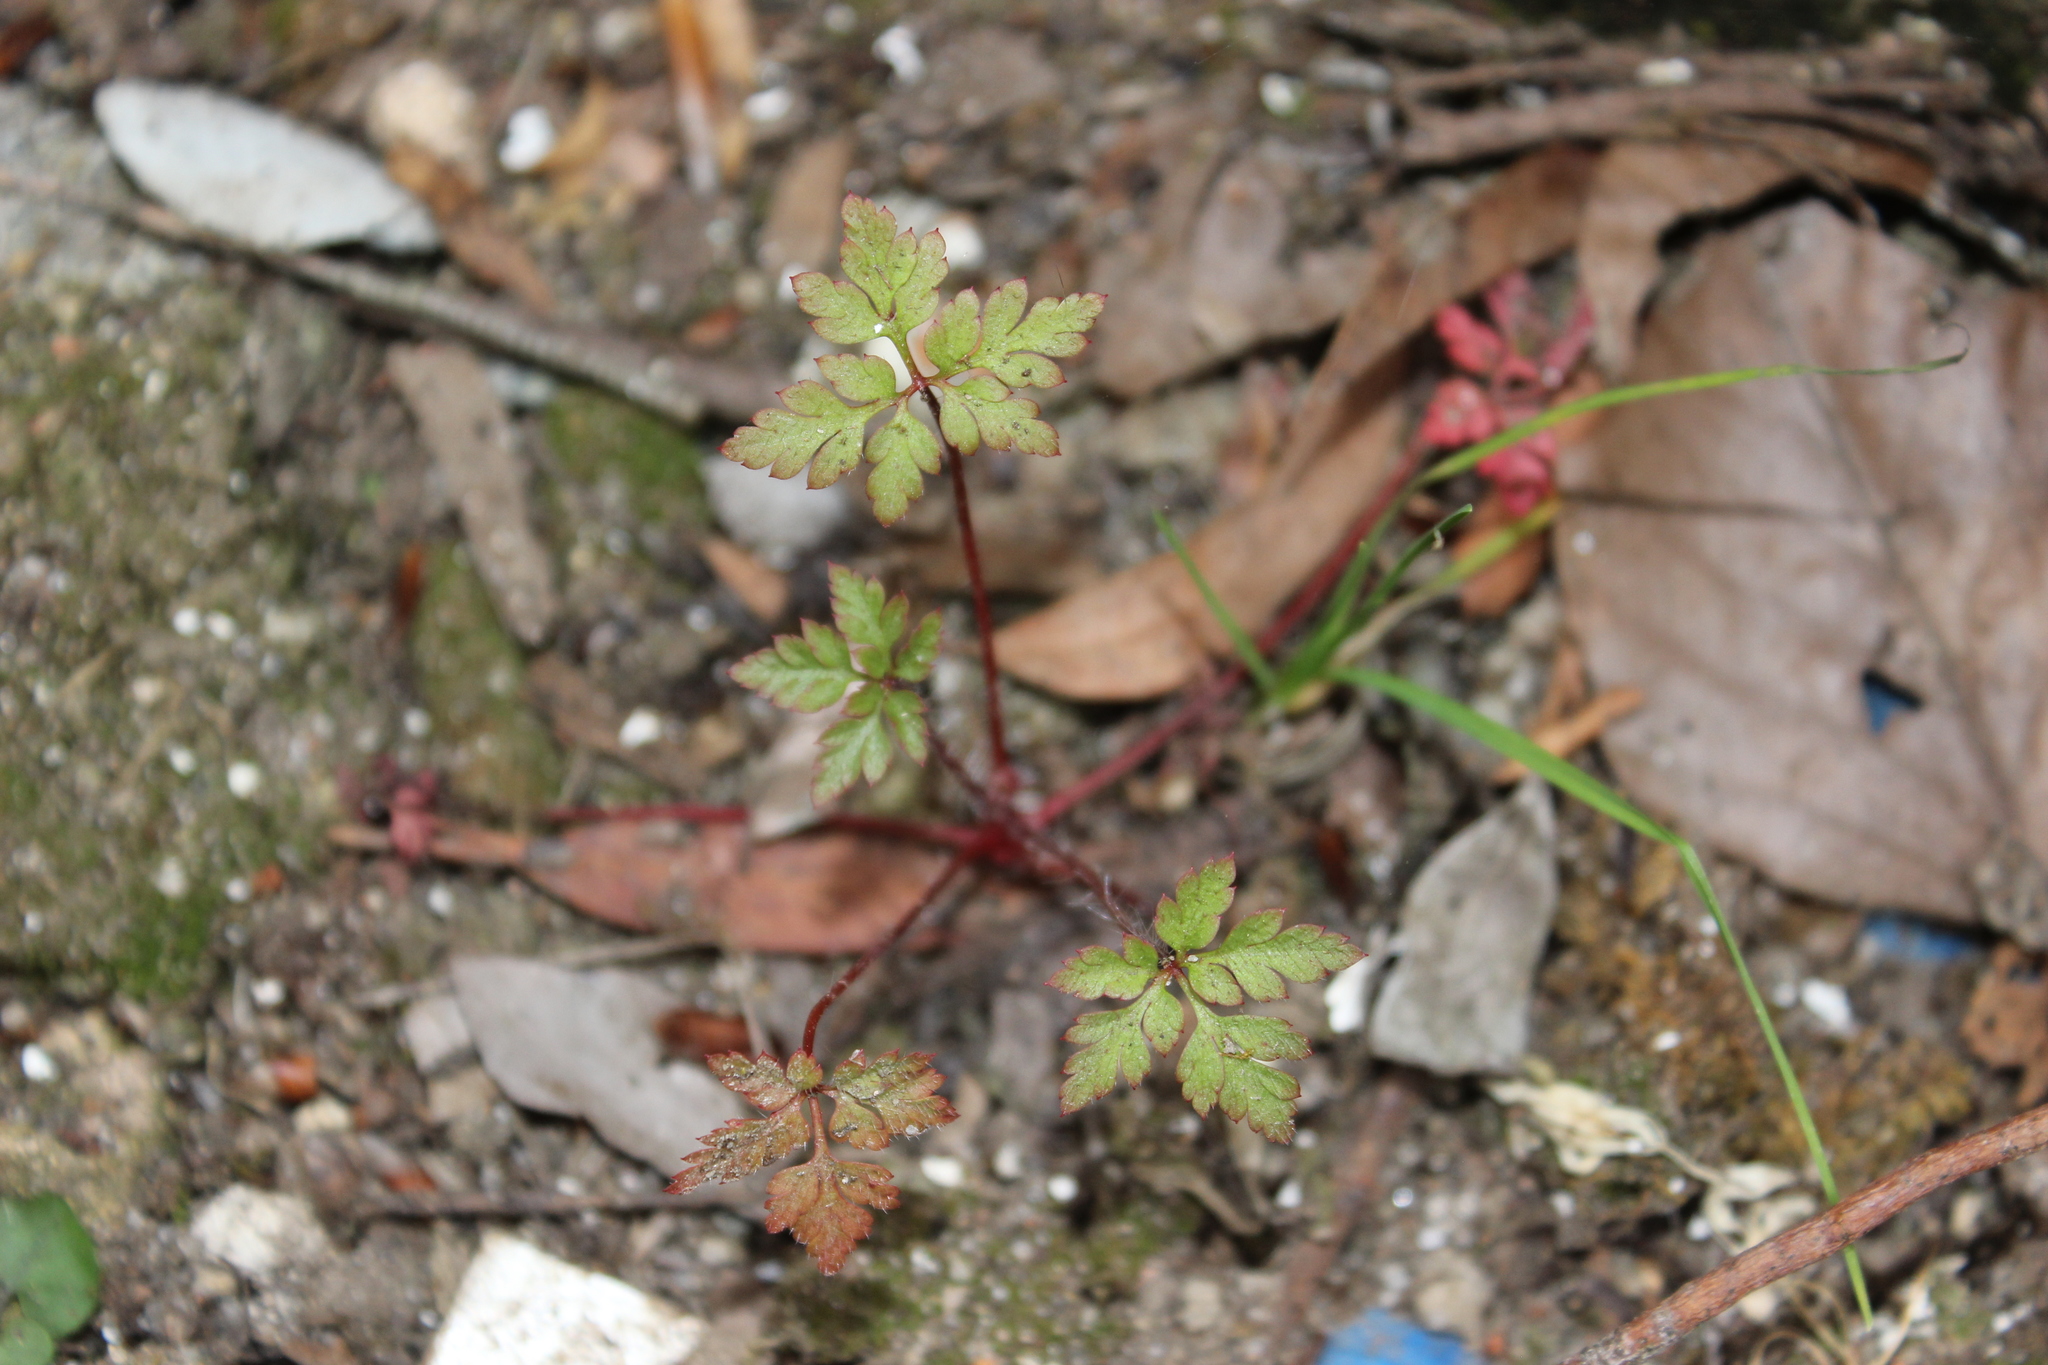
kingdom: Plantae
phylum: Tracheophyta
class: Magnoliopsida
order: Geraniales
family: Geraniaceae
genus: Geranium
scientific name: Geranium robertianum
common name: Herb-robert
